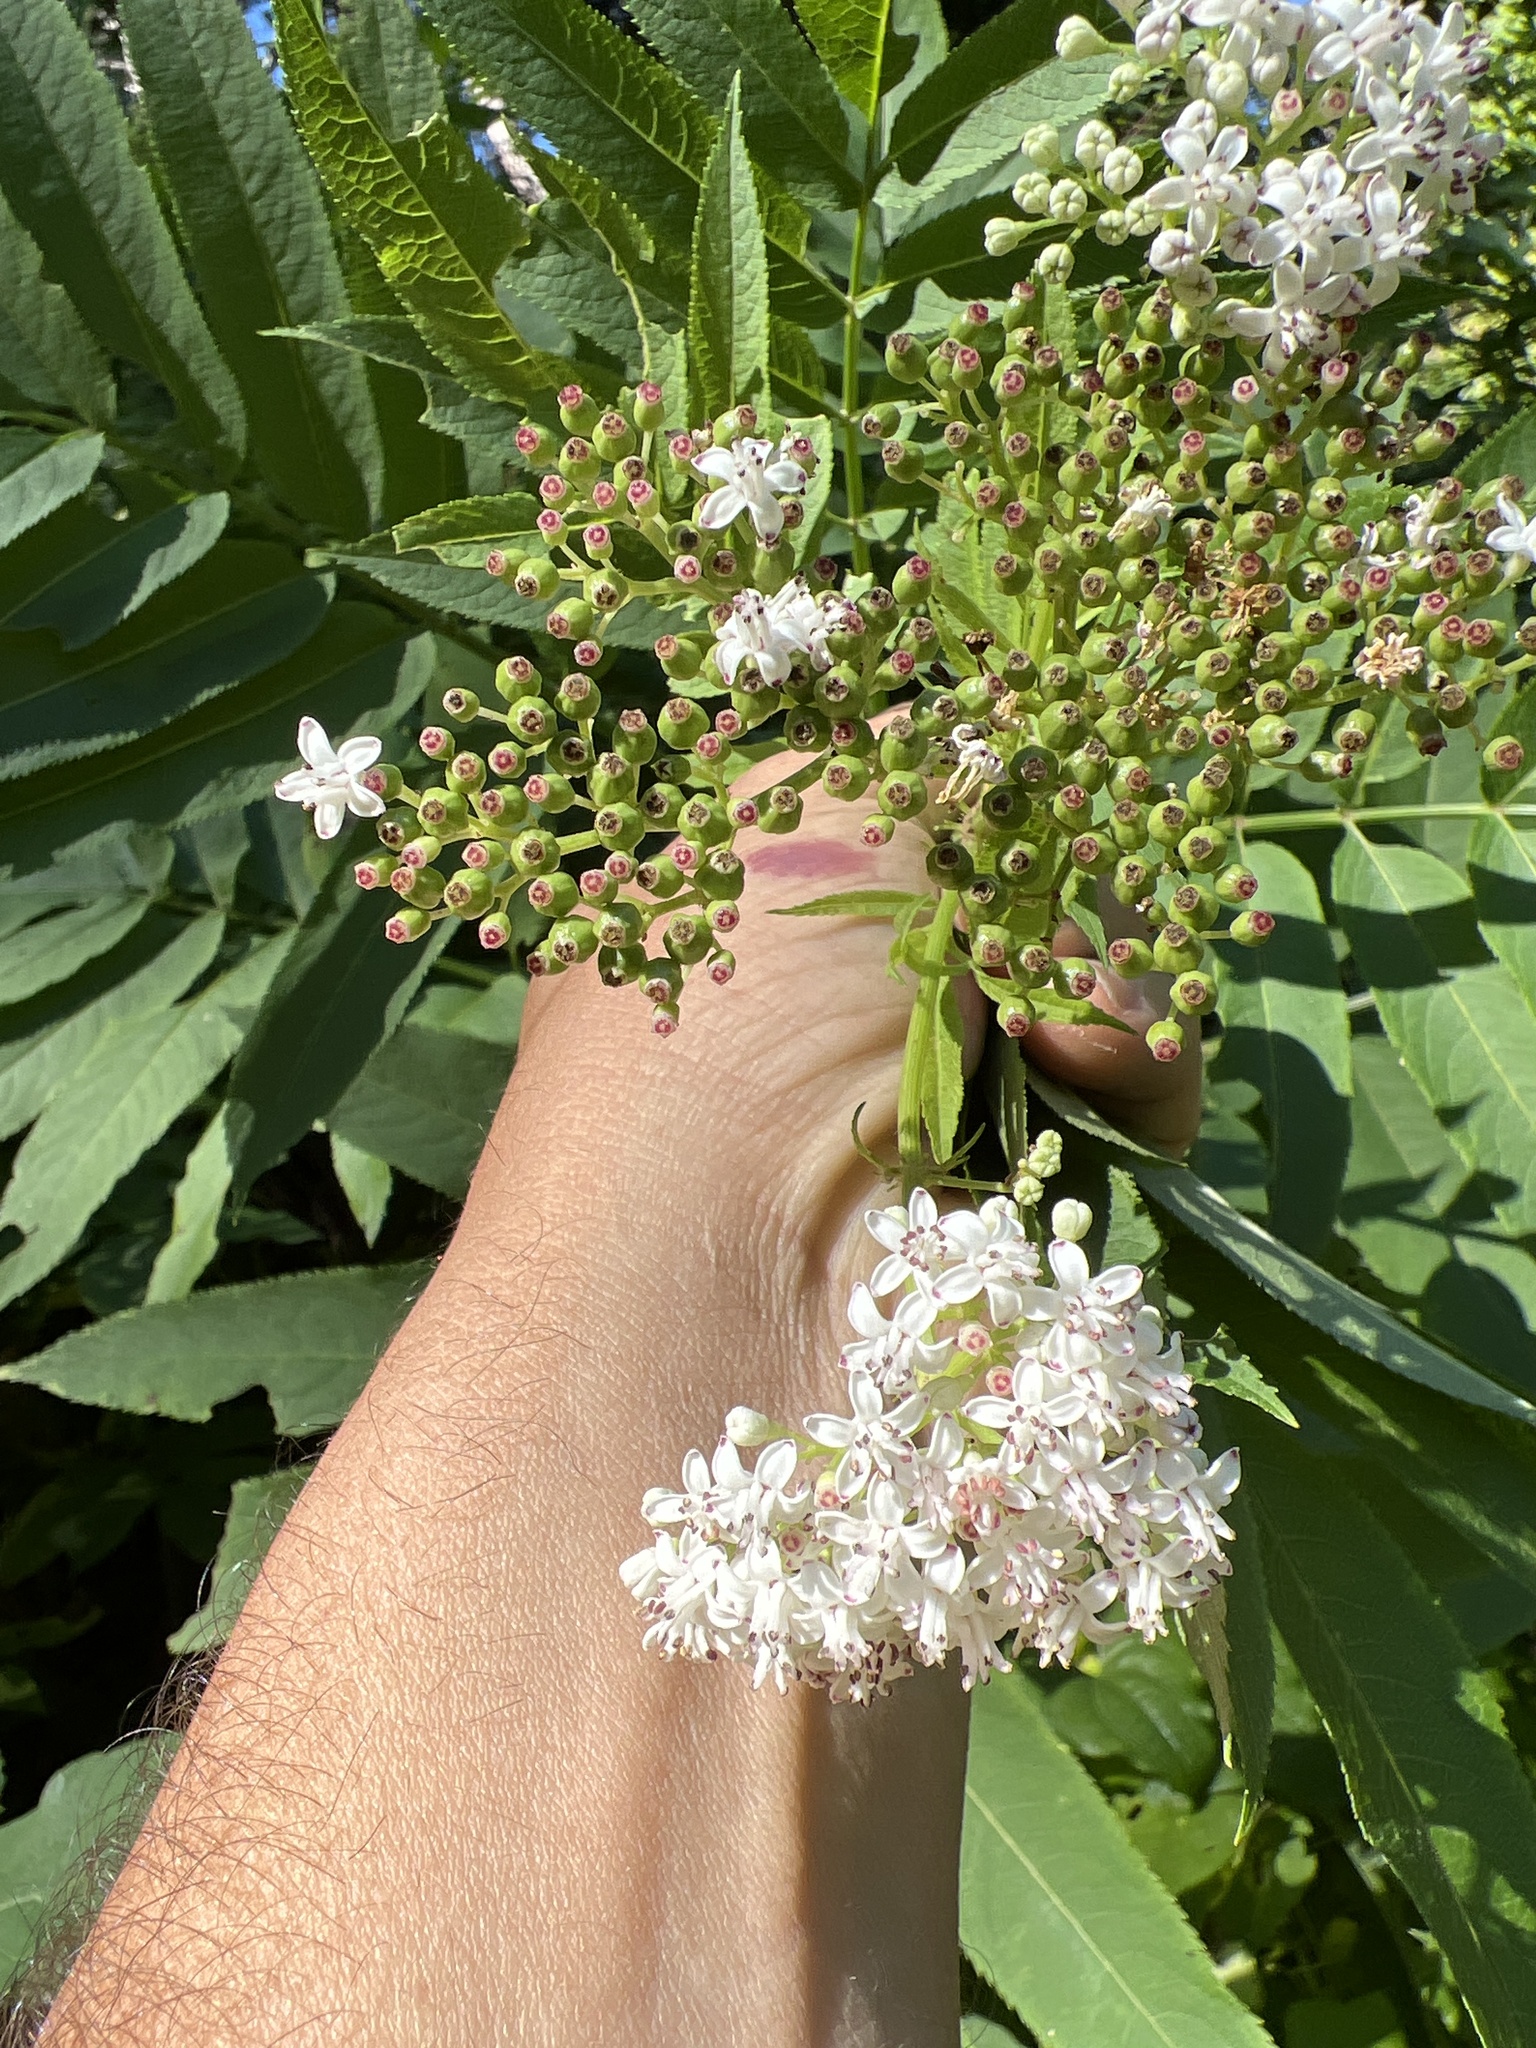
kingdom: Plantae
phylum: Tracheophyta
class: Magnoliopsida
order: Dipsacales
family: Viburnaceae
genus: Sambucus
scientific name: Sambucus ebulus
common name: Dwarf elder
